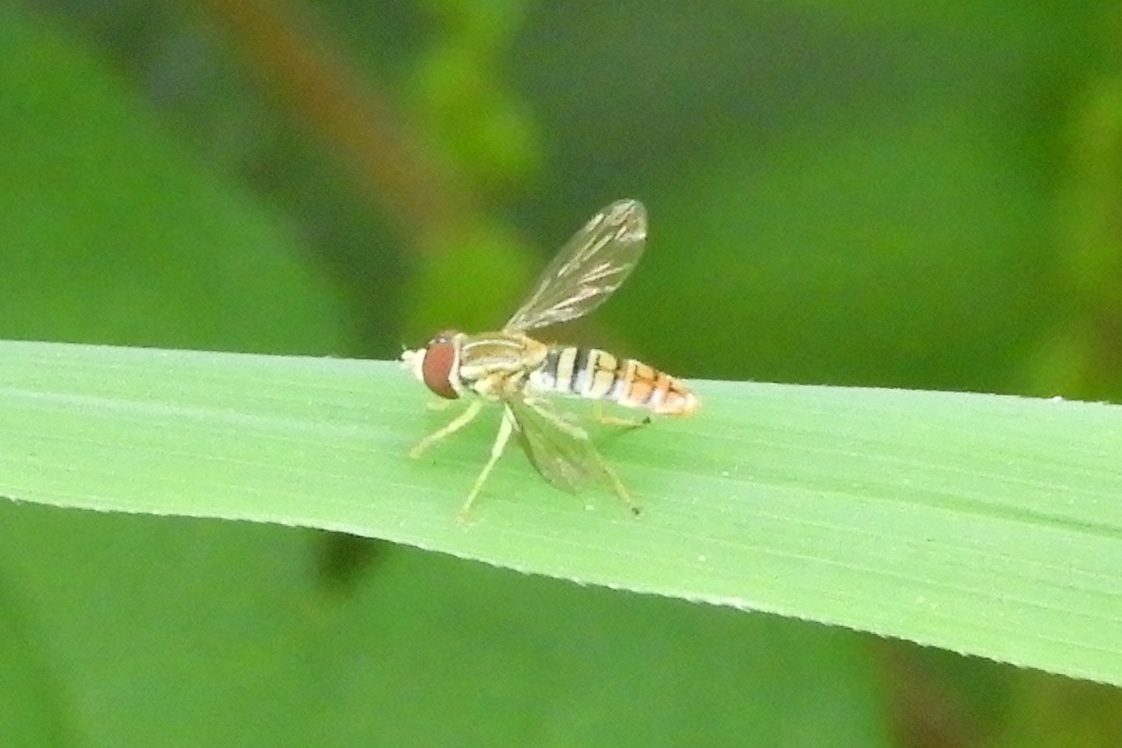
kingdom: Animalia
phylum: Arthropoda
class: Insecta
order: Diptera
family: Syrphidae
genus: Toxomerus
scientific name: Toxomerus politus
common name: Maize calligrapher
